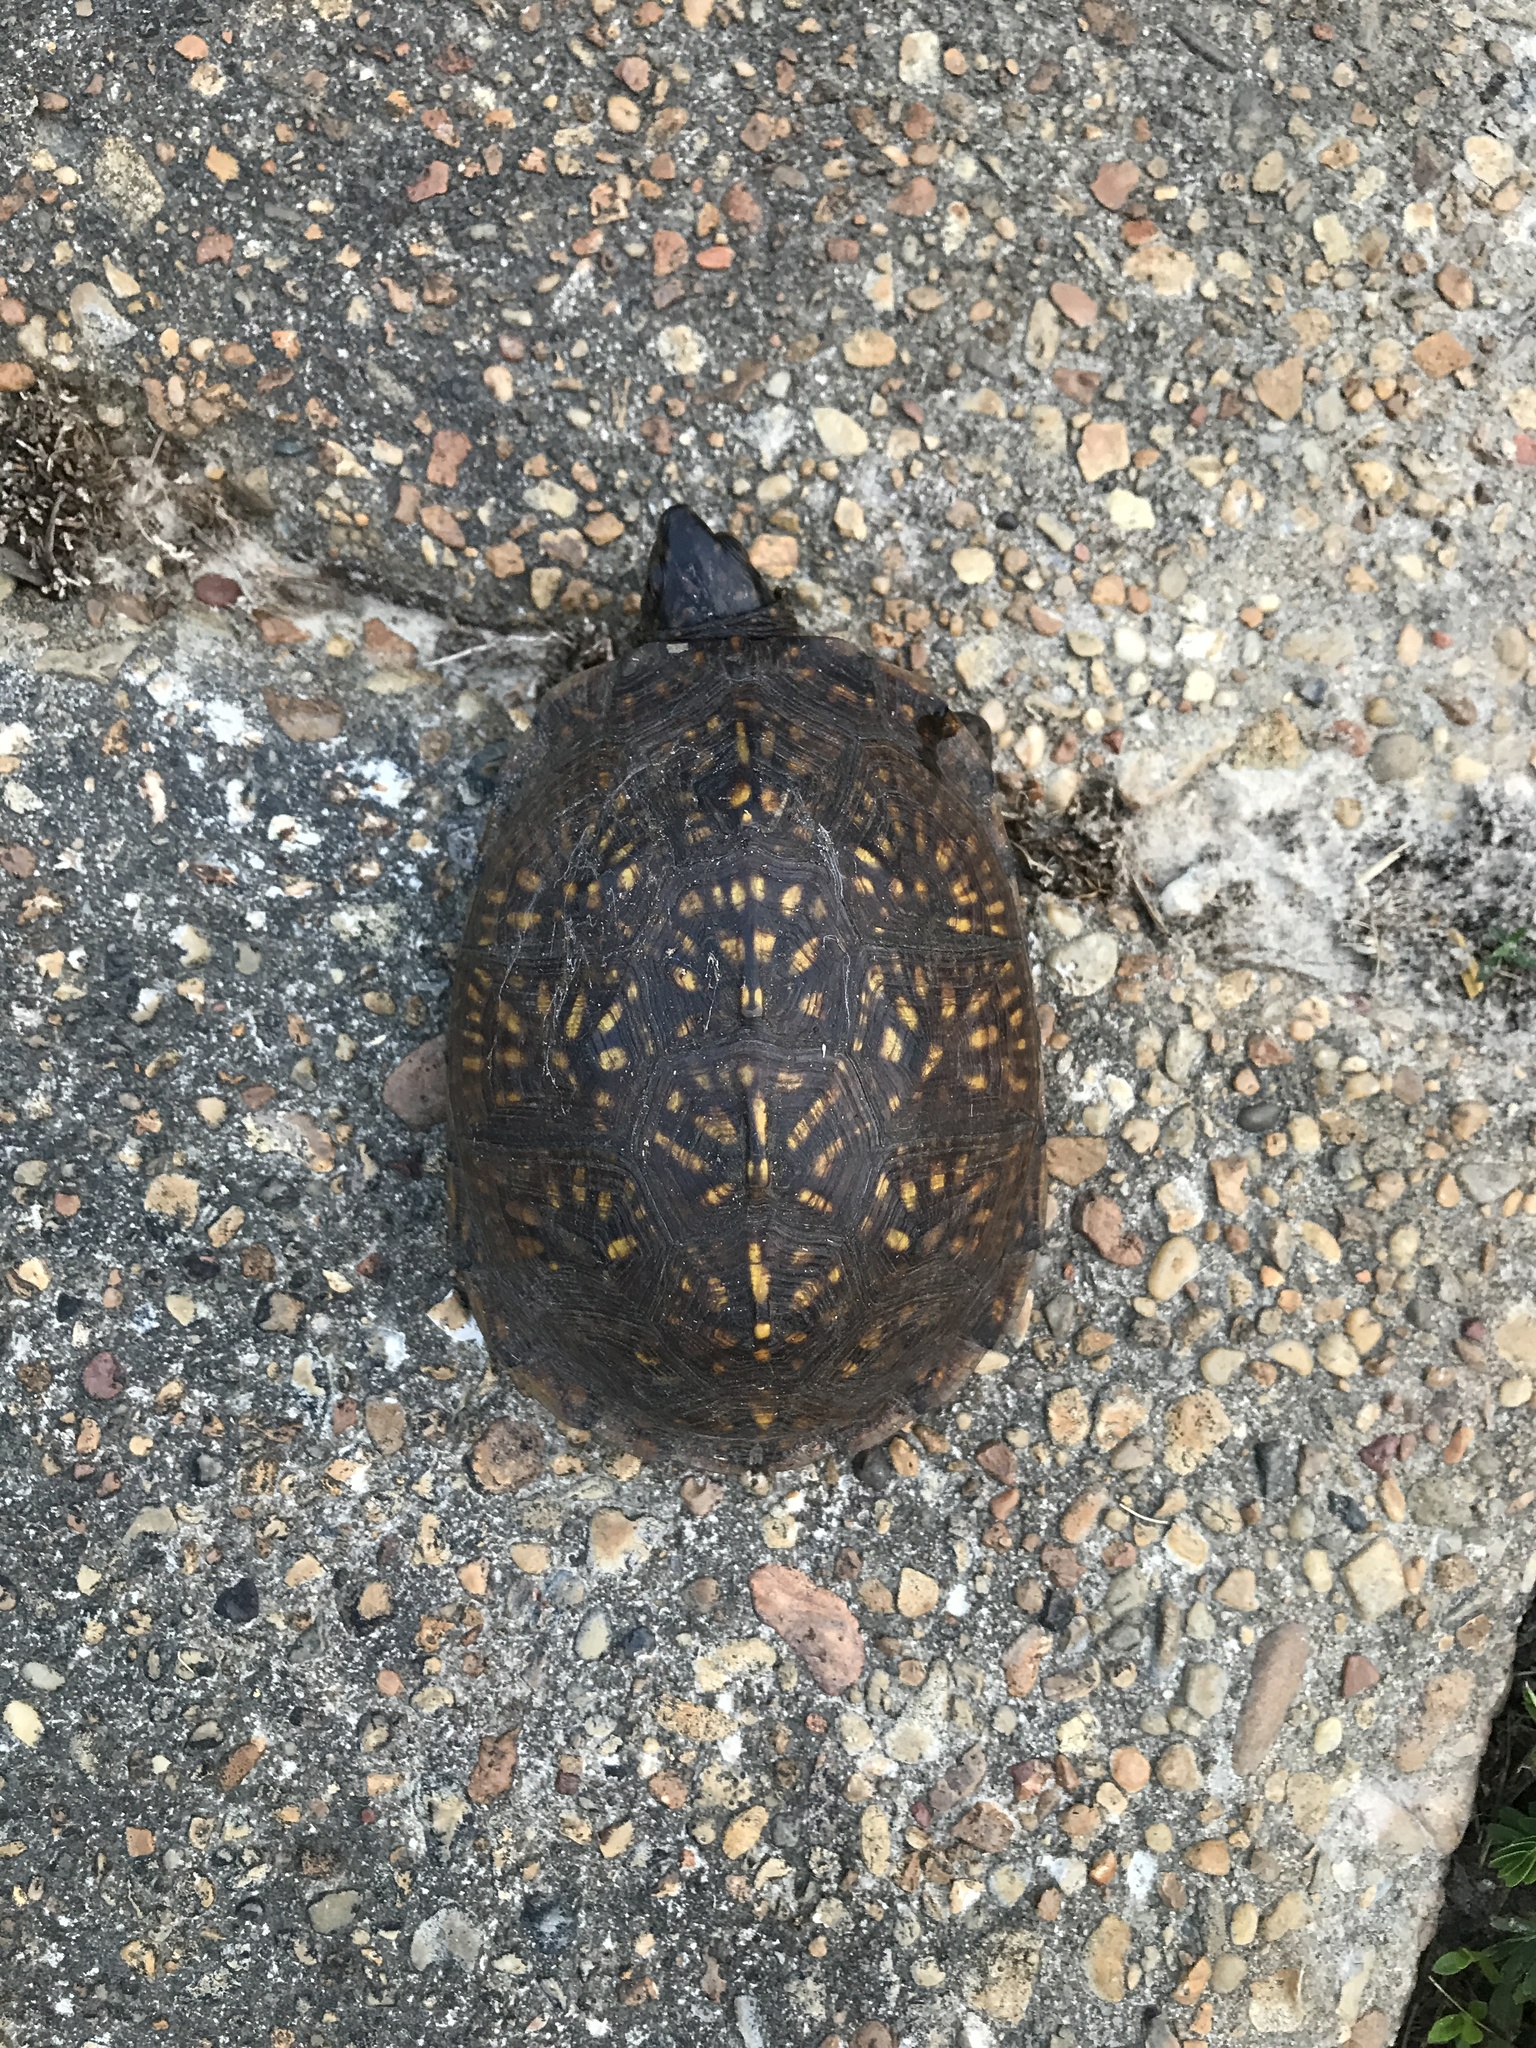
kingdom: Animalia
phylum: Chordata
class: Testudines
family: Emydidae
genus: Terrapene
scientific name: Terrapene carolina
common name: Common box turtle
